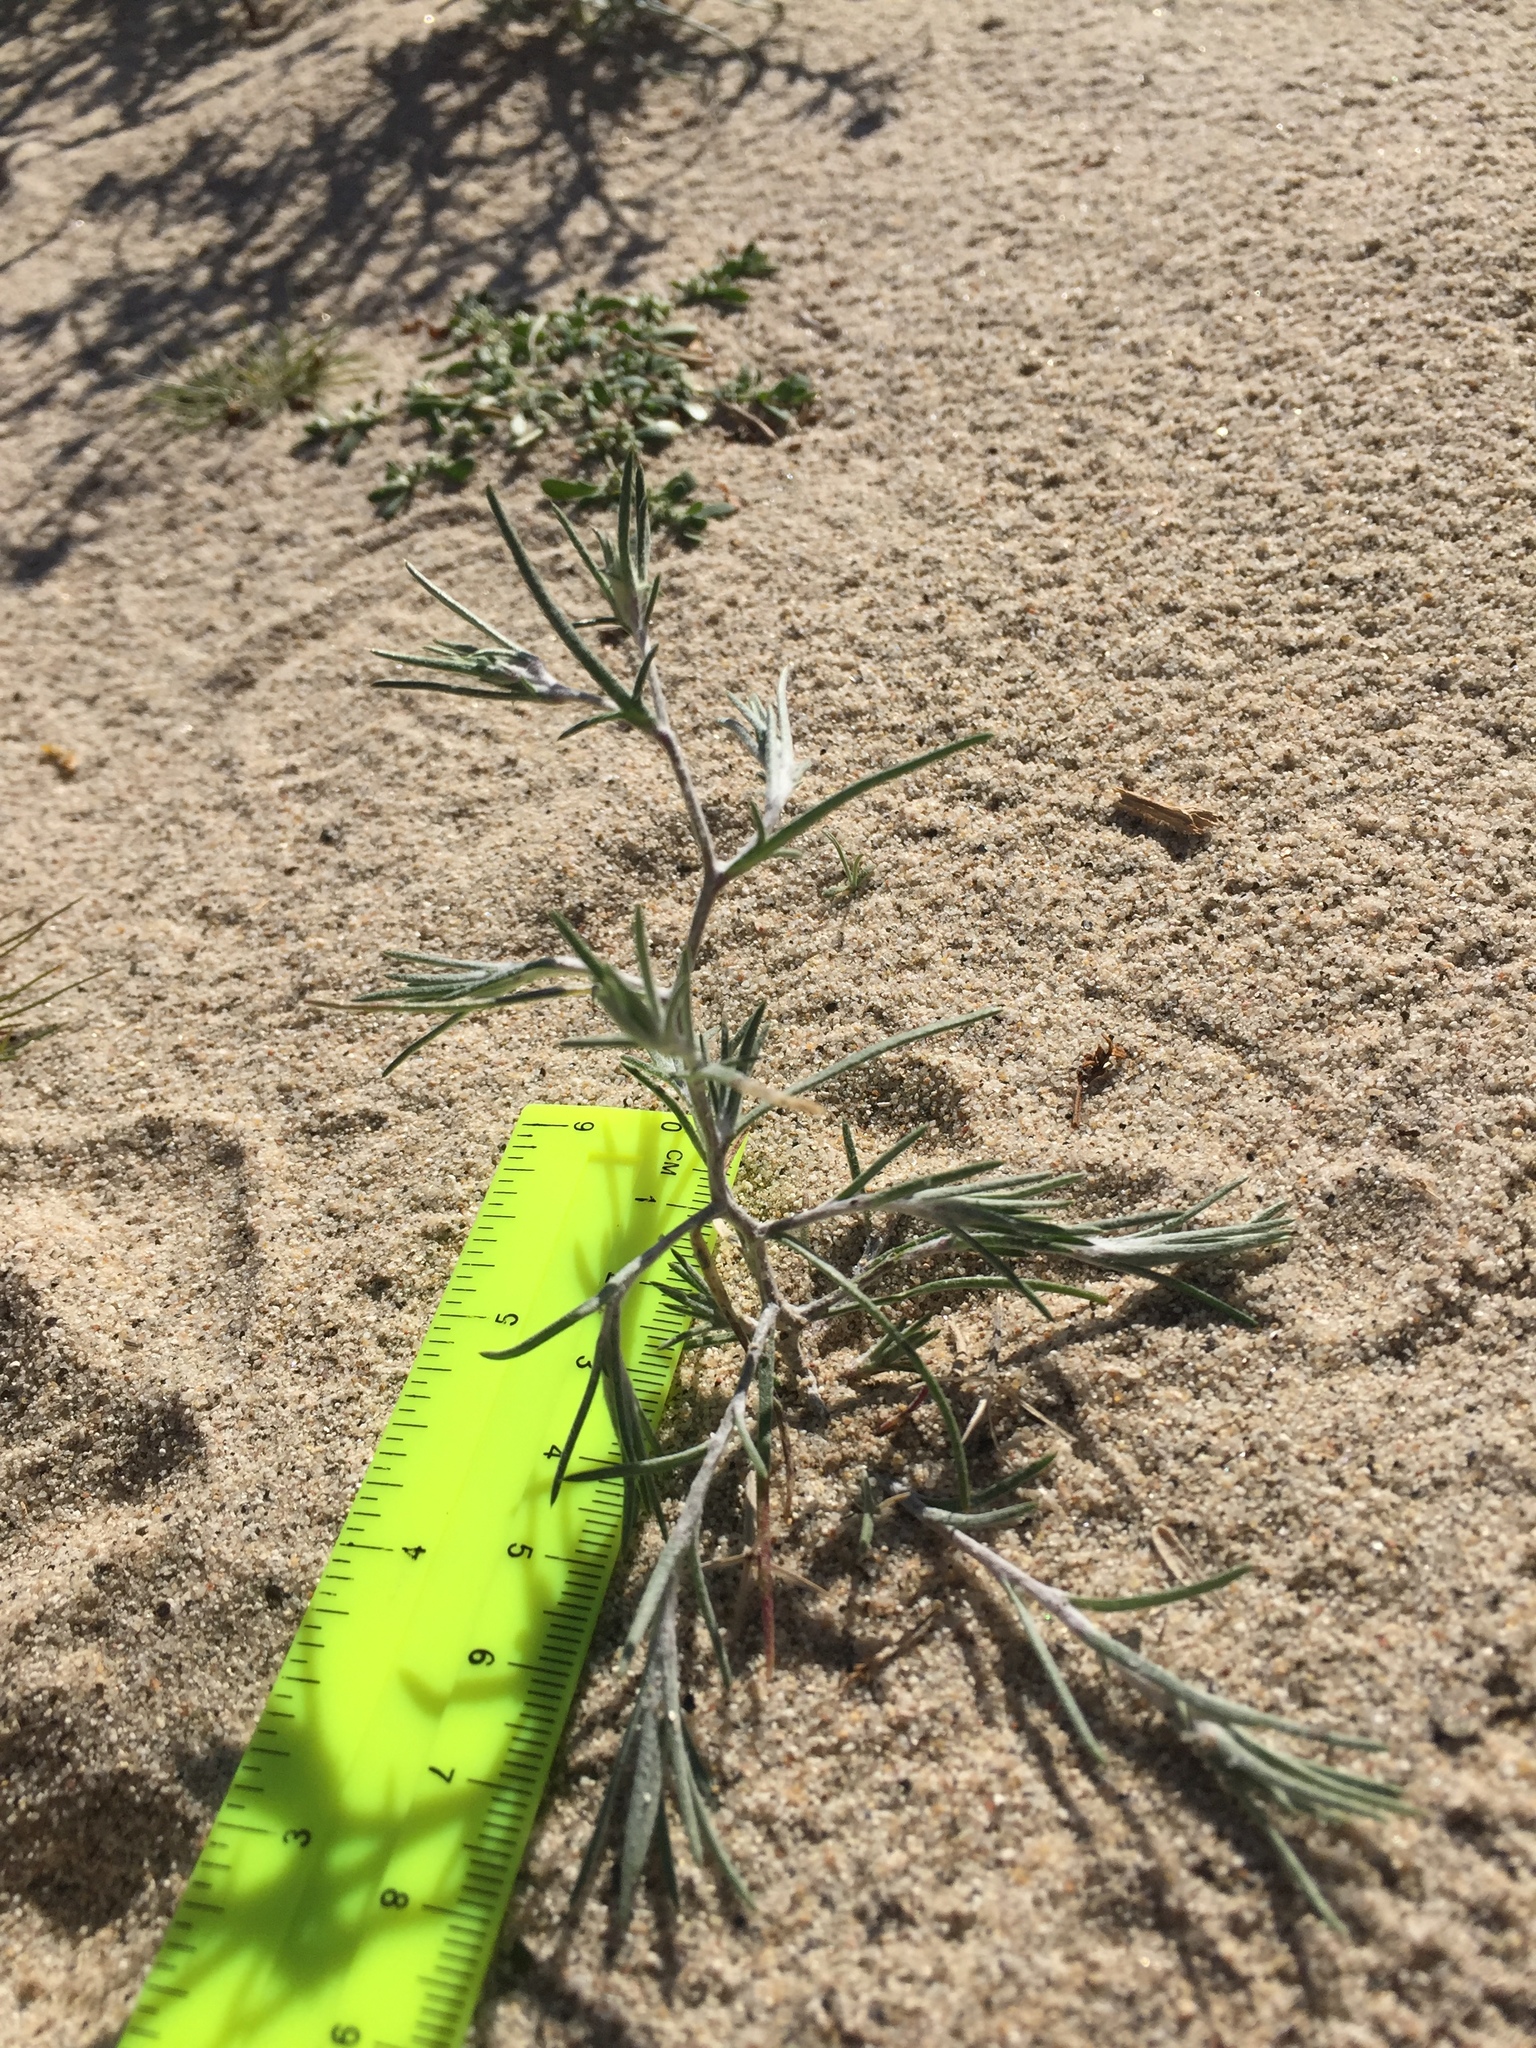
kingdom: Plantae
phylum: Tracheophyta
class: Magnoliopsida
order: Ericales
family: Polemoniaceae
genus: Eriastrum
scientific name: Eriastrum harwoodii
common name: Harwood's woollystar
